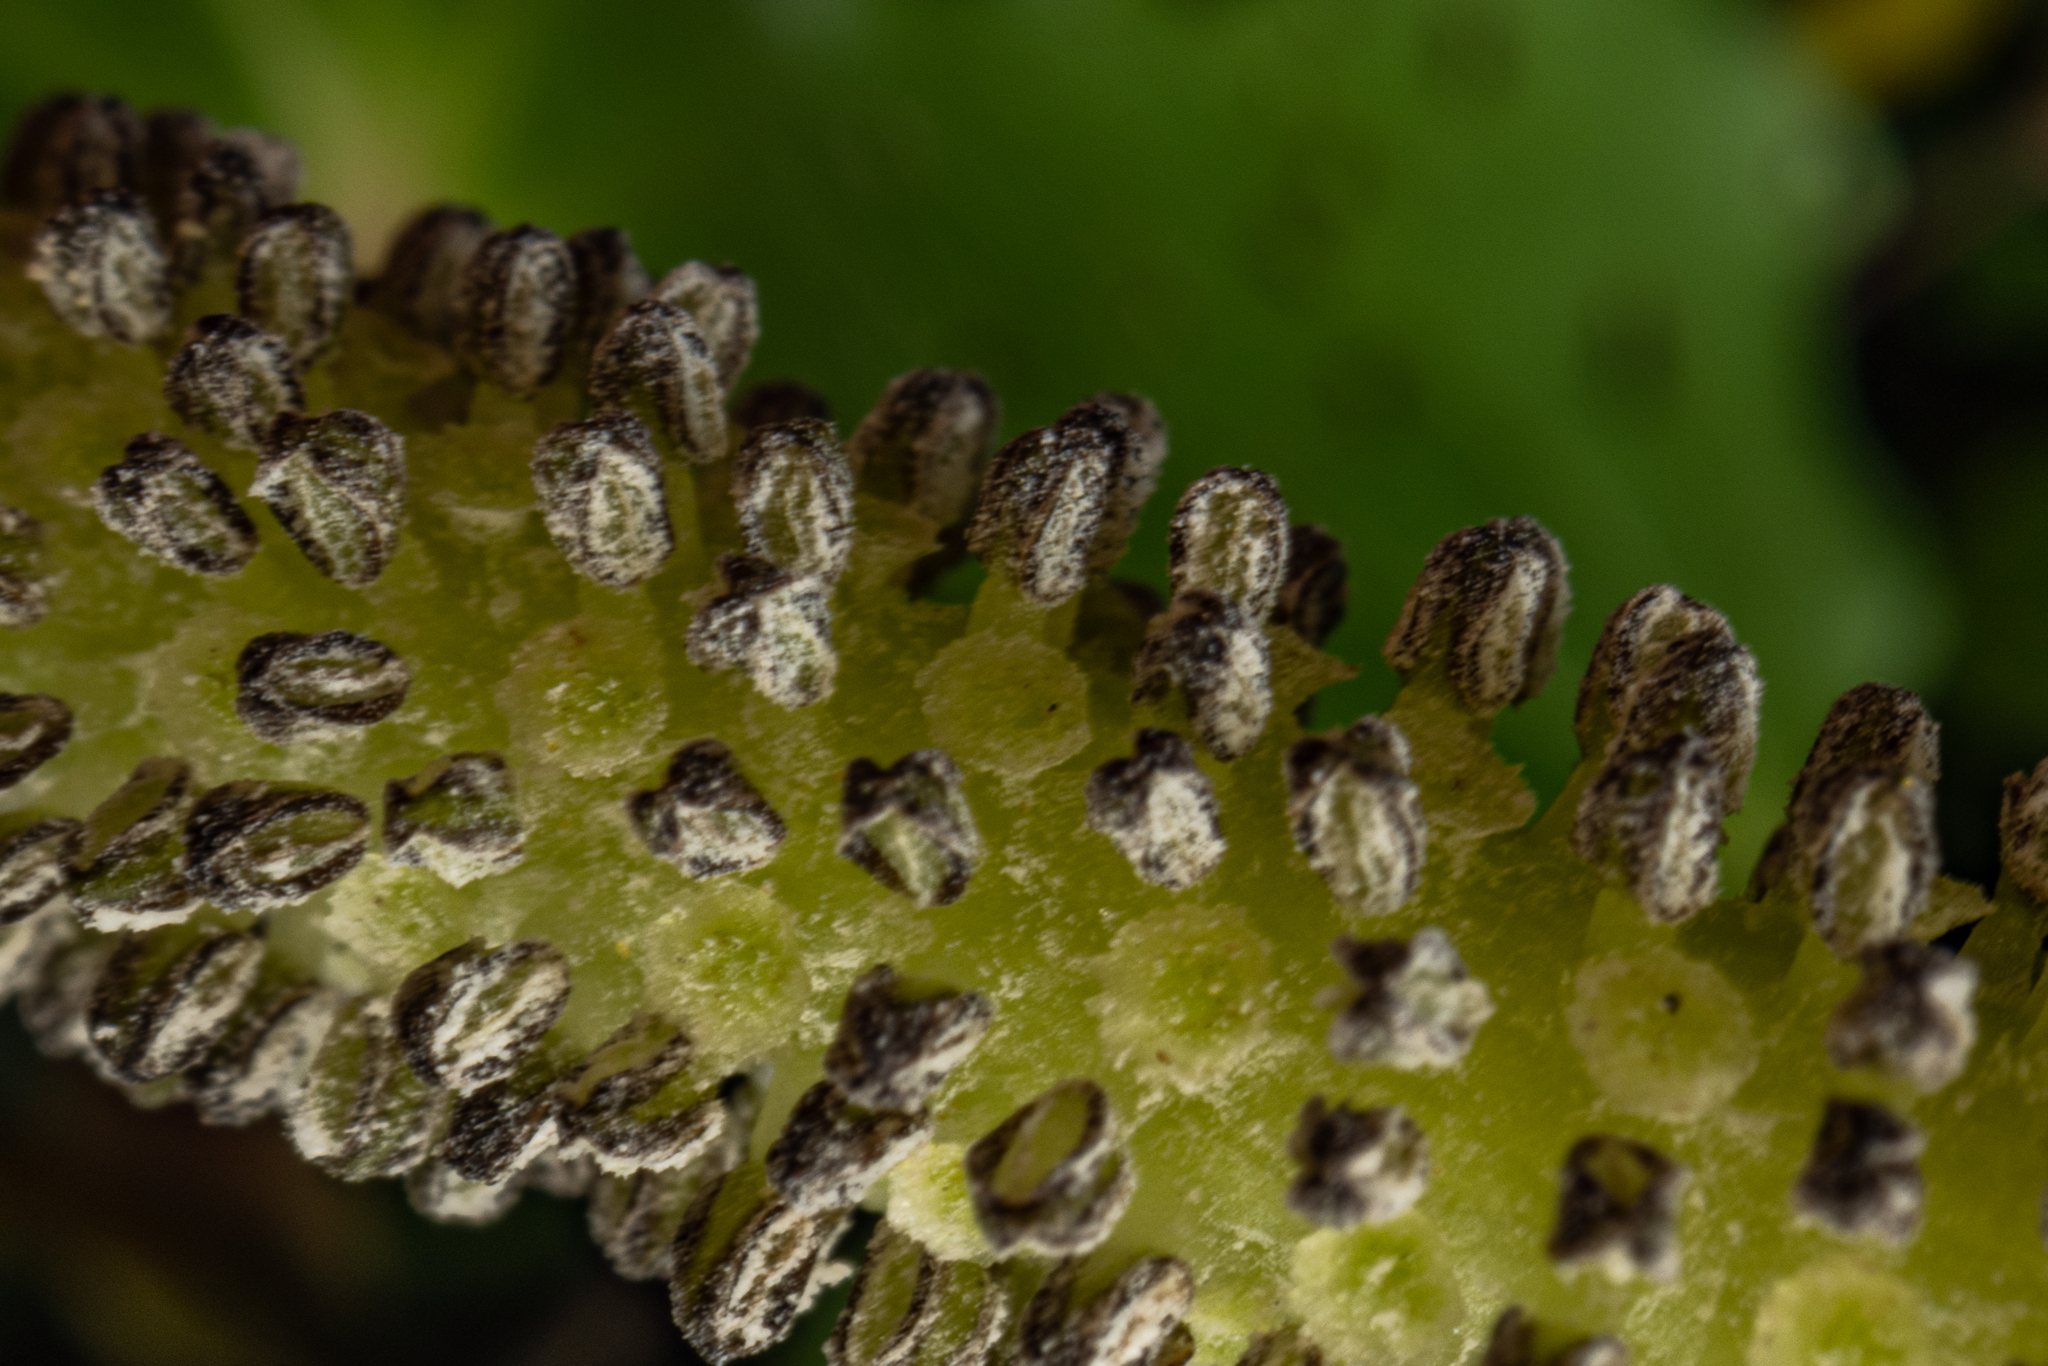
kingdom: Plantae
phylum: Tracheophyta
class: Magnoliopsida
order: Piperales
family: Piperaceae
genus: Macropiper
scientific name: Macropiper excelsum
